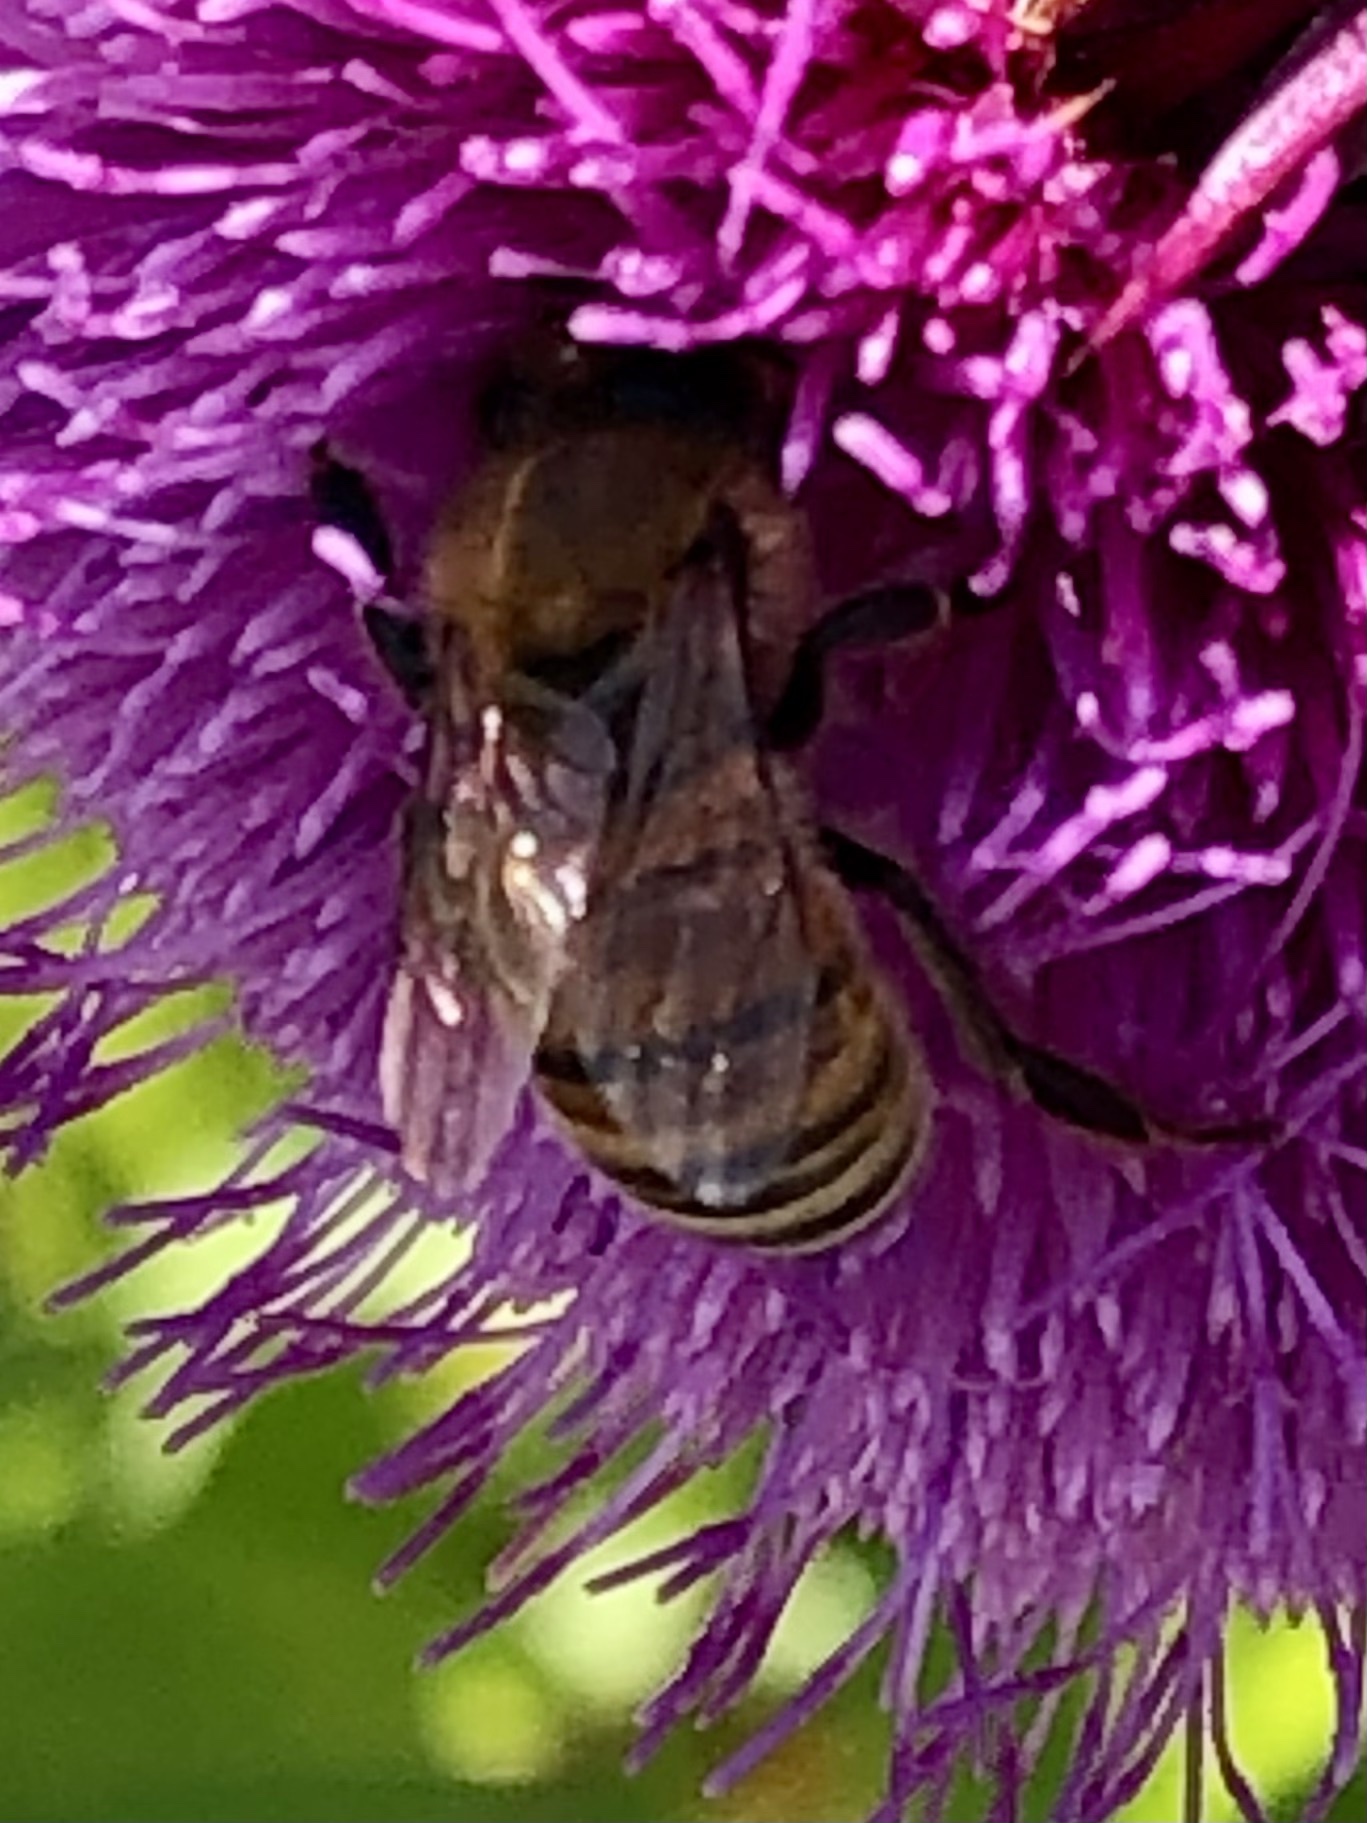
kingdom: Animalia
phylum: Arthropoda
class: Insecta
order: Hymenoptera
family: Apidae
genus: Apis
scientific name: Apis mellifera
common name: Honey bee
